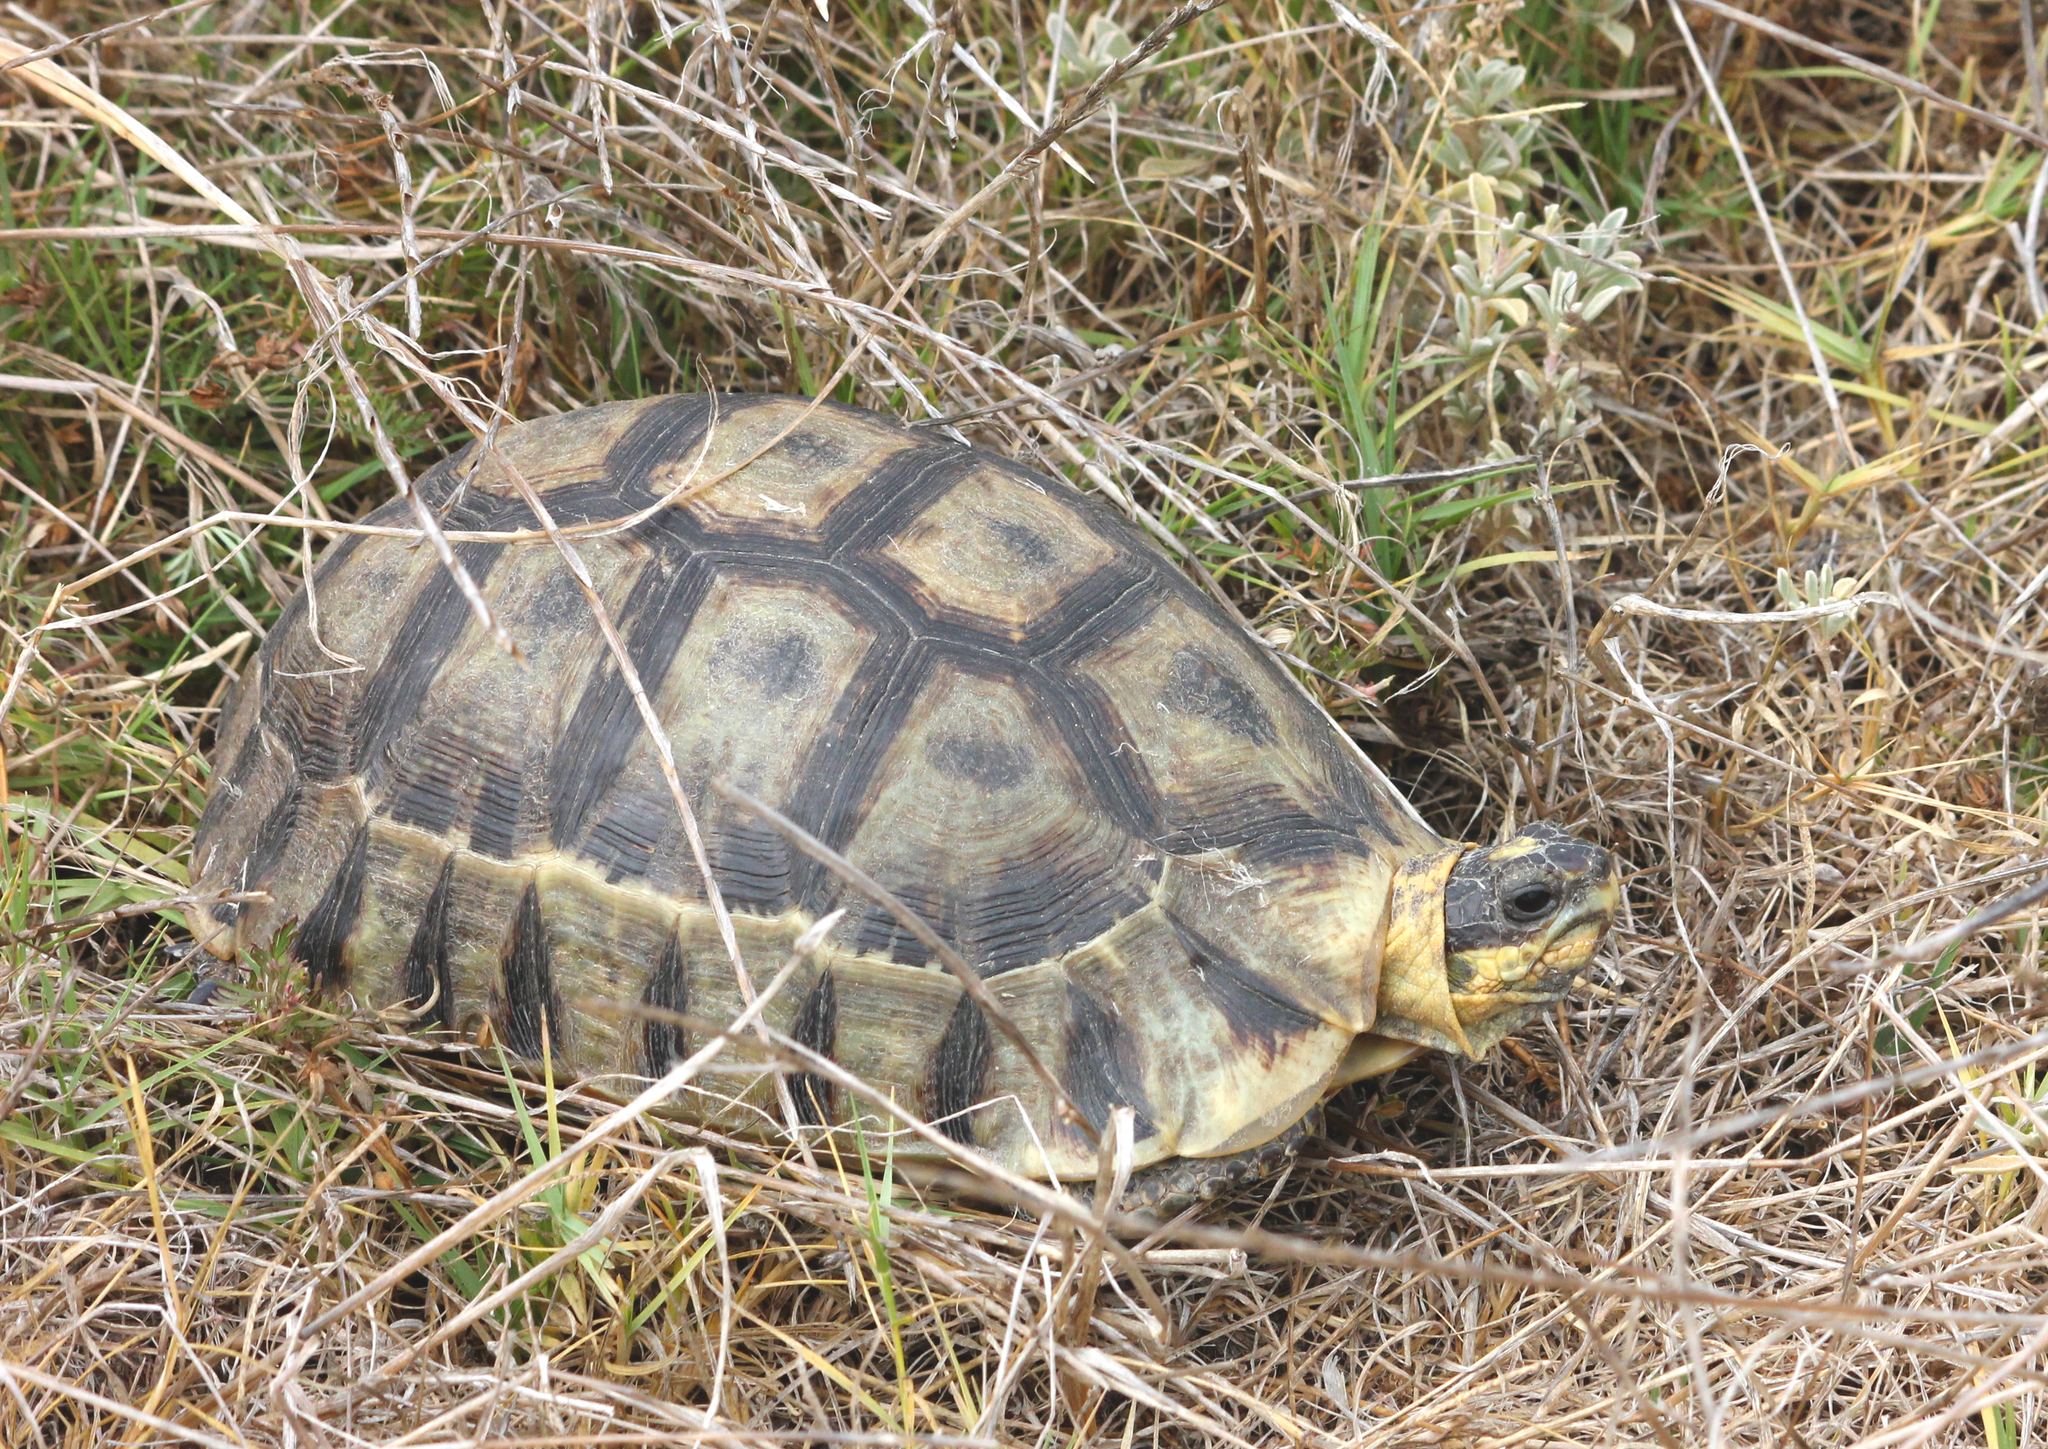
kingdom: Animalia
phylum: Chordata
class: Testudines
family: Testudinidae
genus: Chersina
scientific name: Chersina angulata
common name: South african bowsprit tortoise
